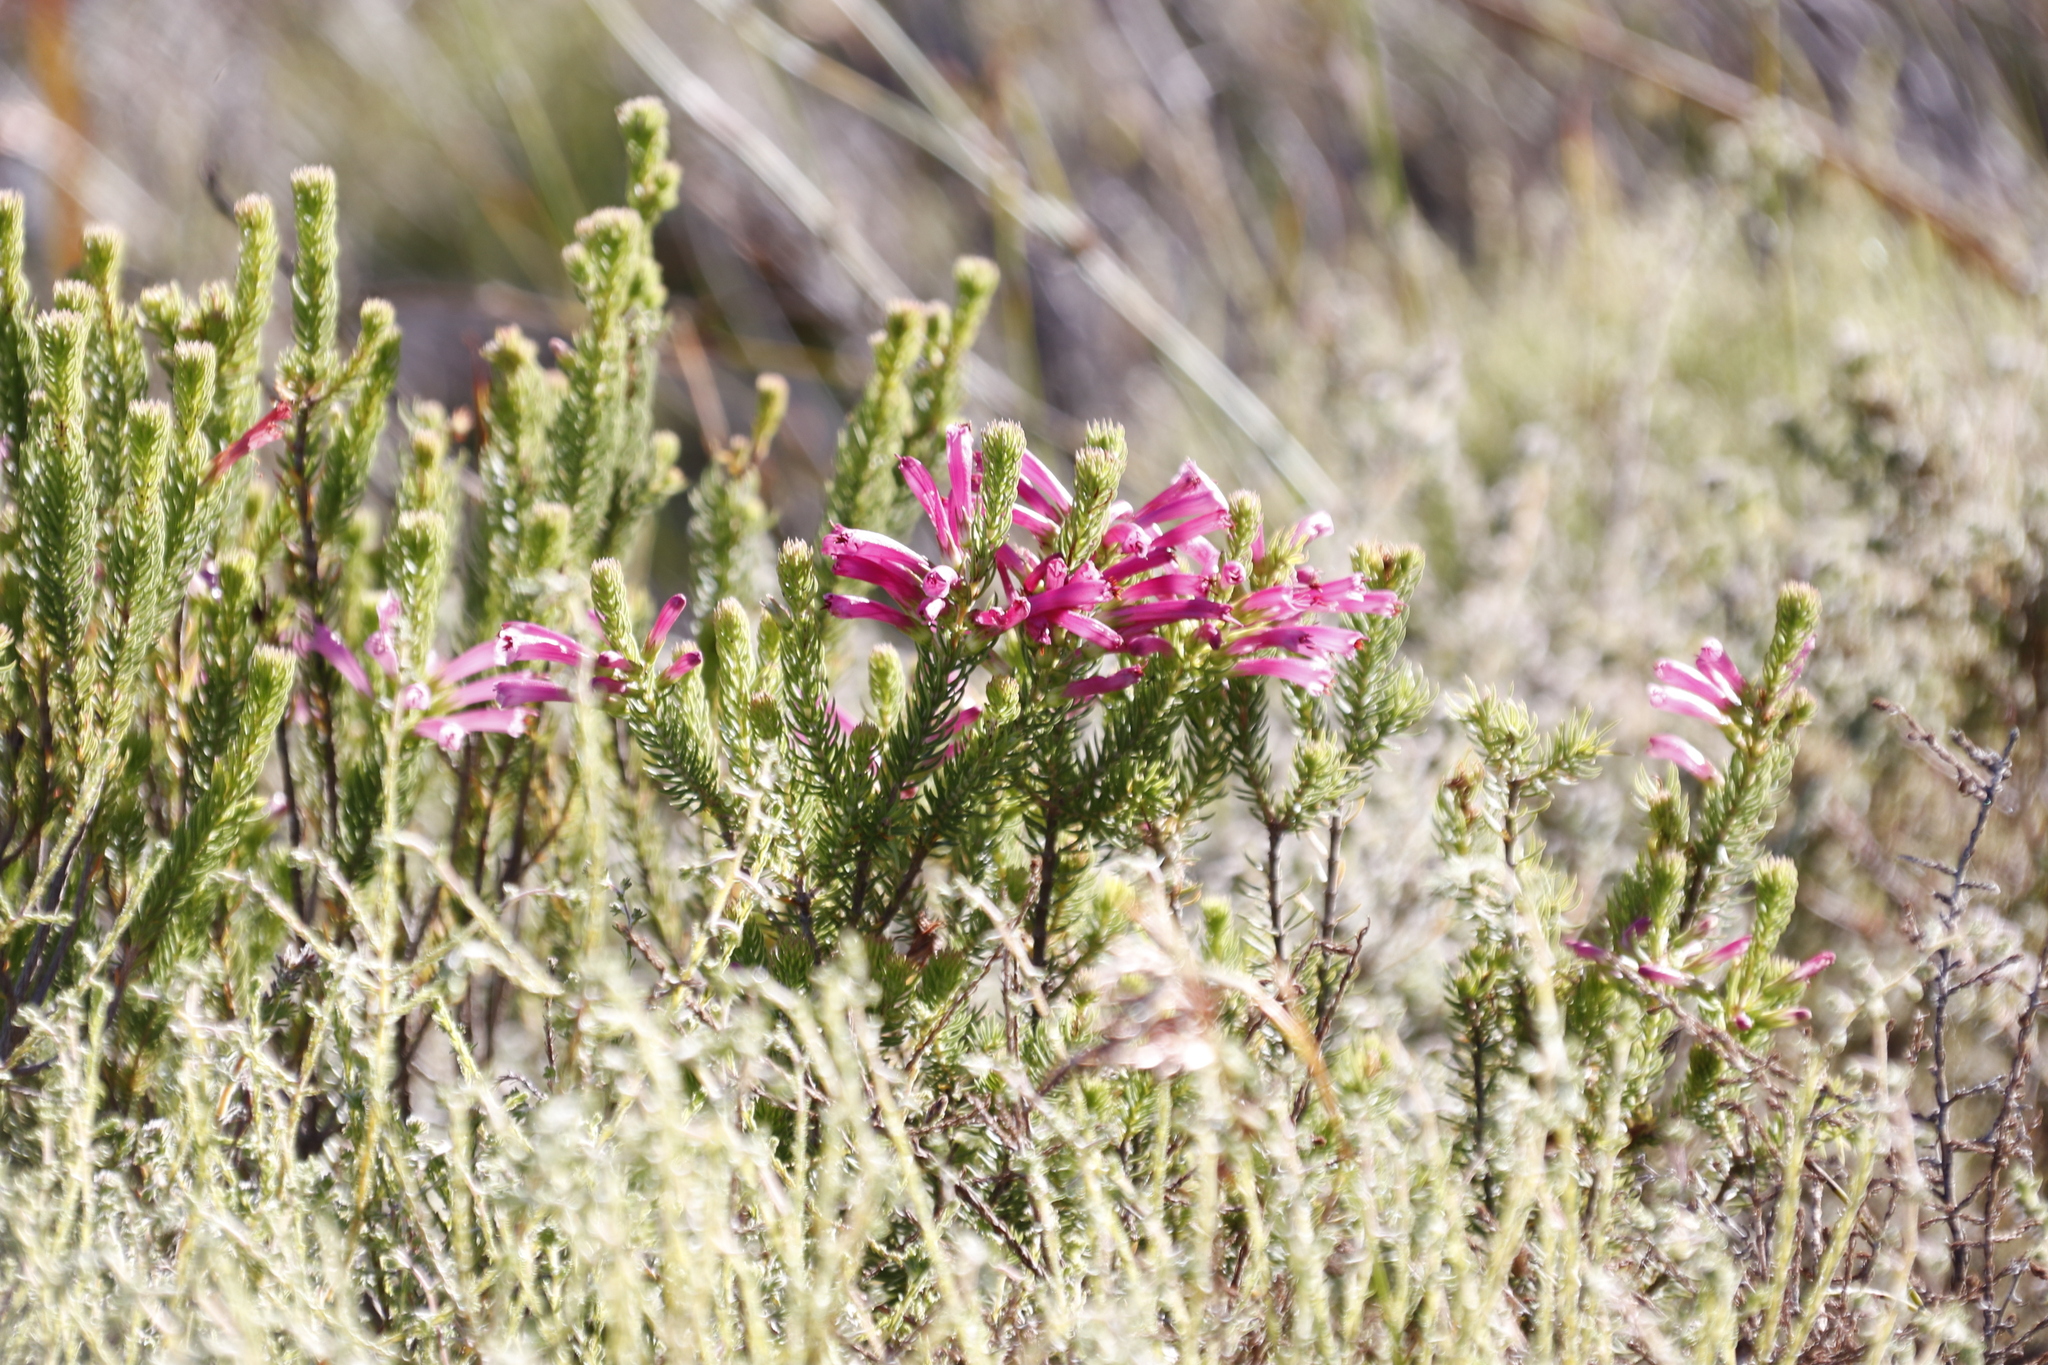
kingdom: Plantae
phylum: Tracheophyta
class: Magnoliopsida
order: Ericales
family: Ericaceae
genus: Erica
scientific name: Erica abietina
